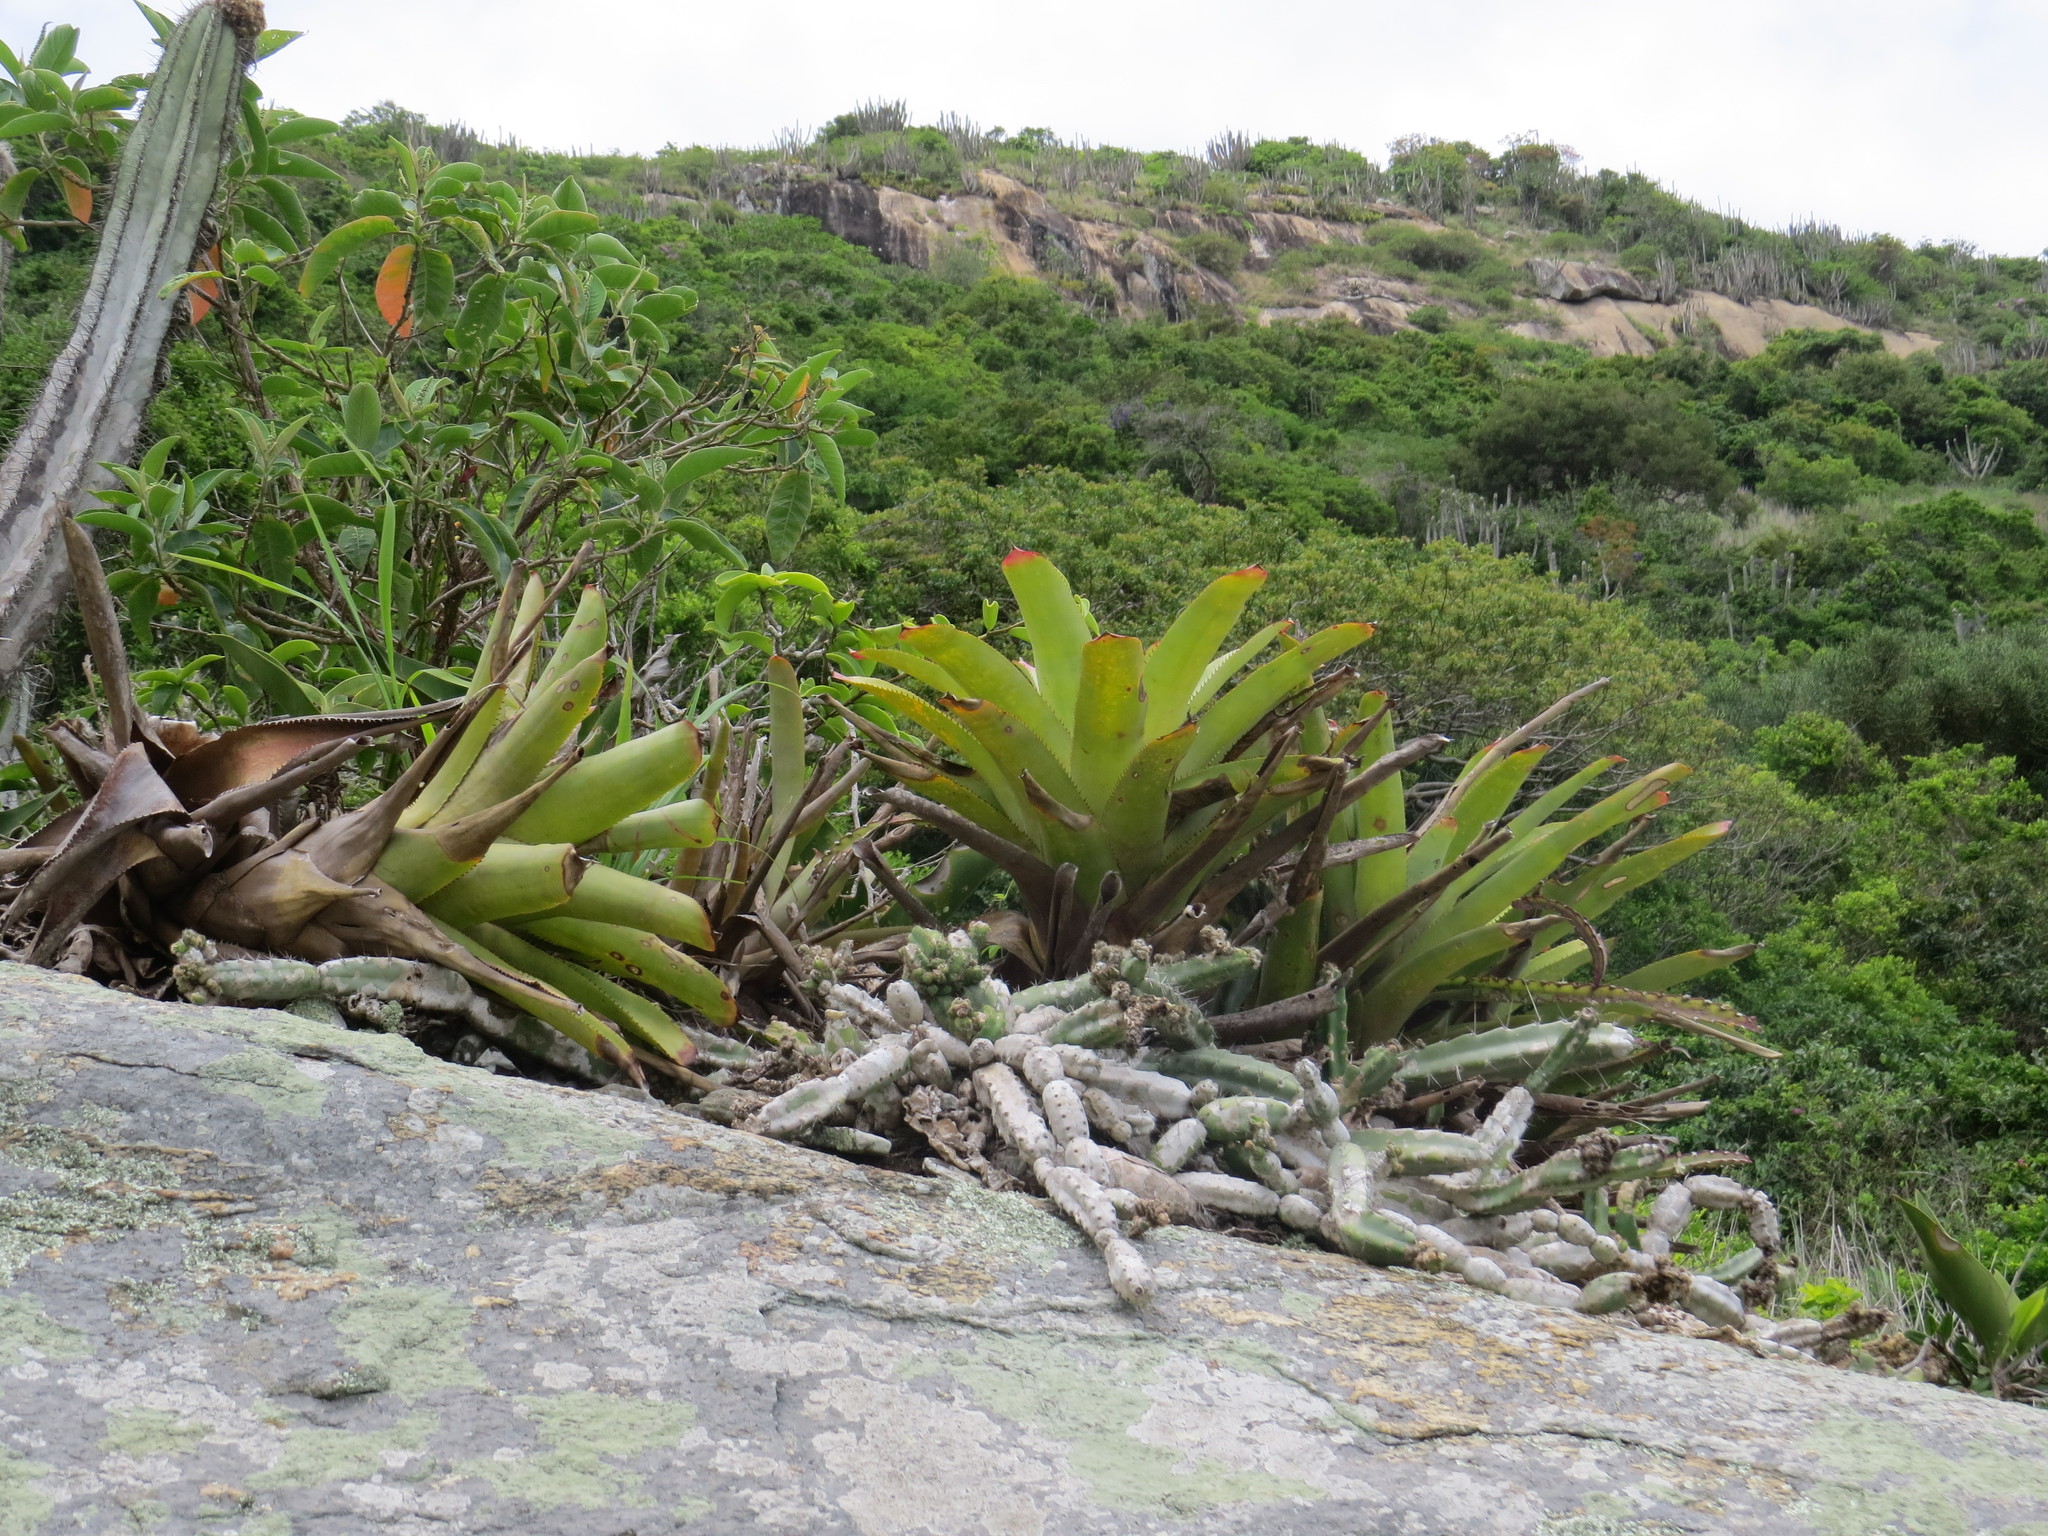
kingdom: Plantae
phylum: Tracheophyta
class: Liliopsida
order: Poales
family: Bromeliaceae
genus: Neoregelia
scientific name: Neoregelia cruenta
